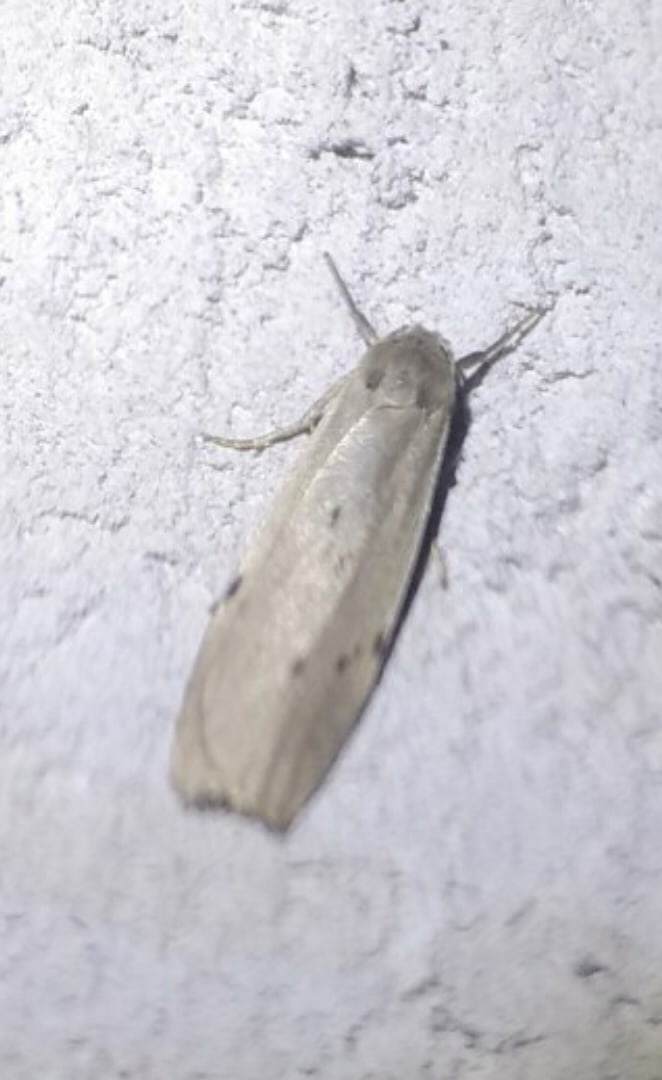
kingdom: Animalia
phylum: Arthropoda
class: Insecta
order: Lepidoptera
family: Erebidae
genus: Pelosia
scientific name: Pelosia muscerda
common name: Dotted footman
